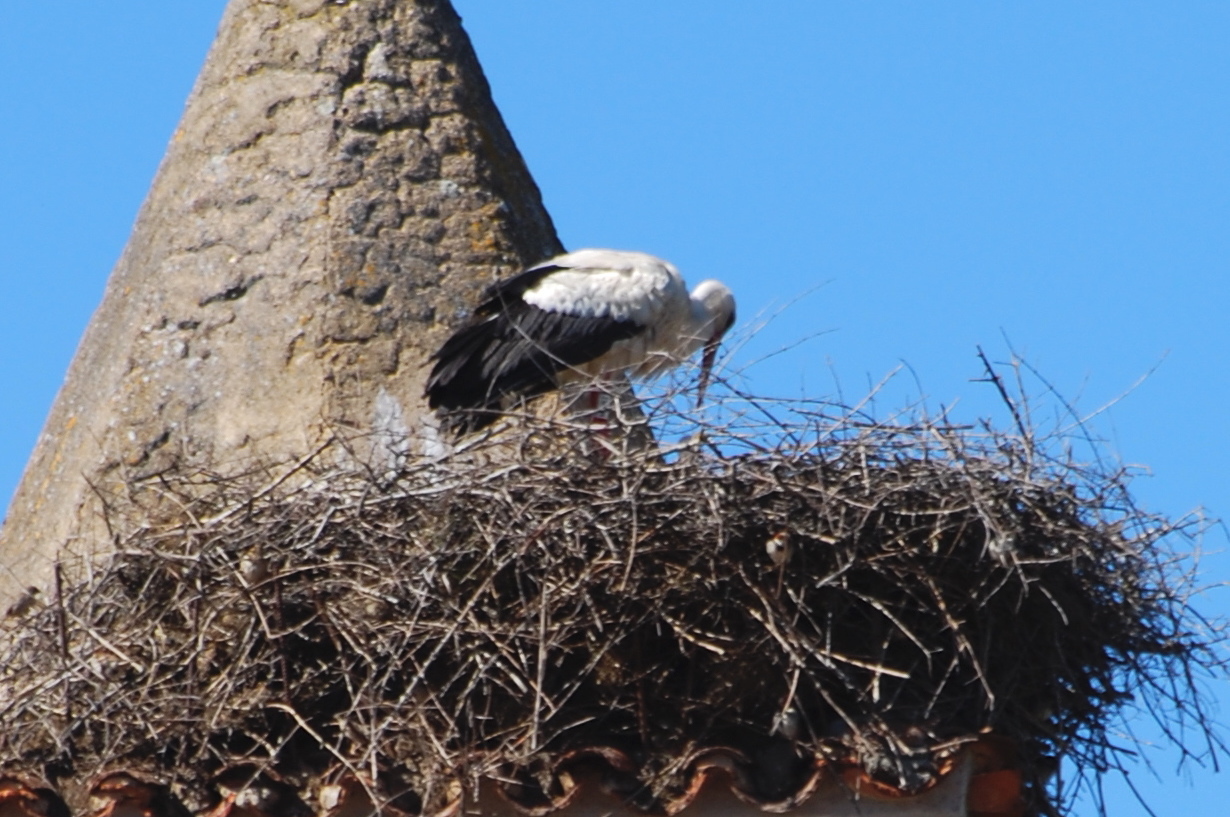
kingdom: Animalia
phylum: Chordata
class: Aves
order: Ciconiiformes
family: Ciconiidae
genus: Ciconia
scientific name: Ciconia ciconia
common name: White stork
